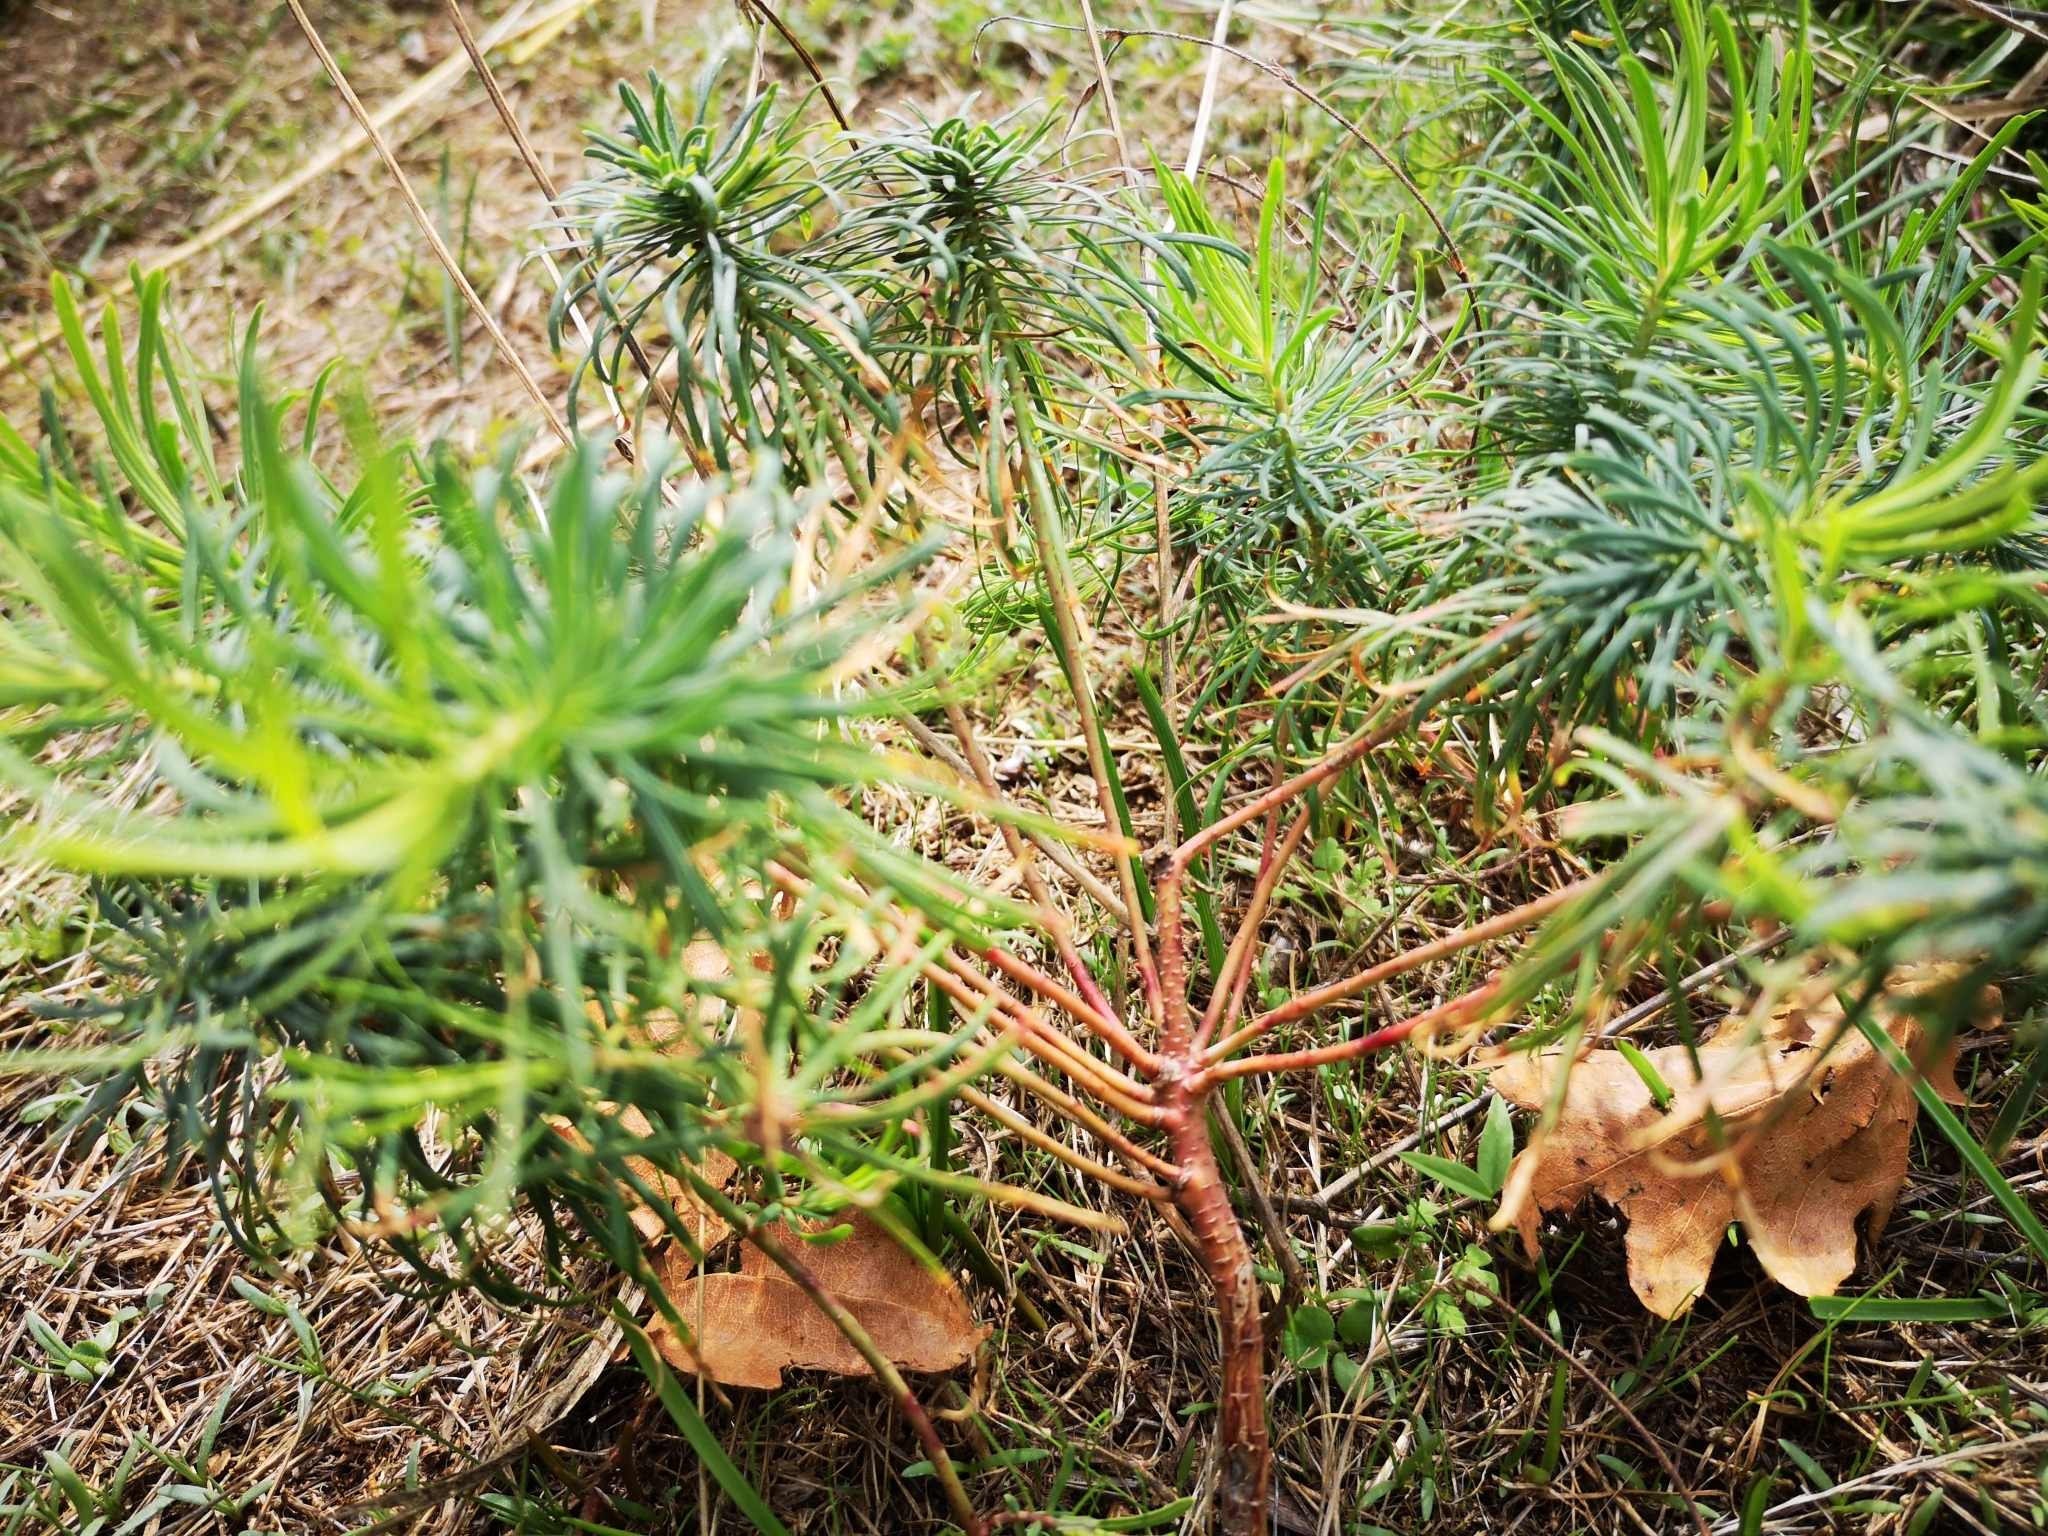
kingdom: Plantae
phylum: Tracheophyta
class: Magnoliopsida
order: Malpighiales
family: Euphorbiaceae
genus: Euphorbia
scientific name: Euphorbia cyparissias
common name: Cypress spurge
